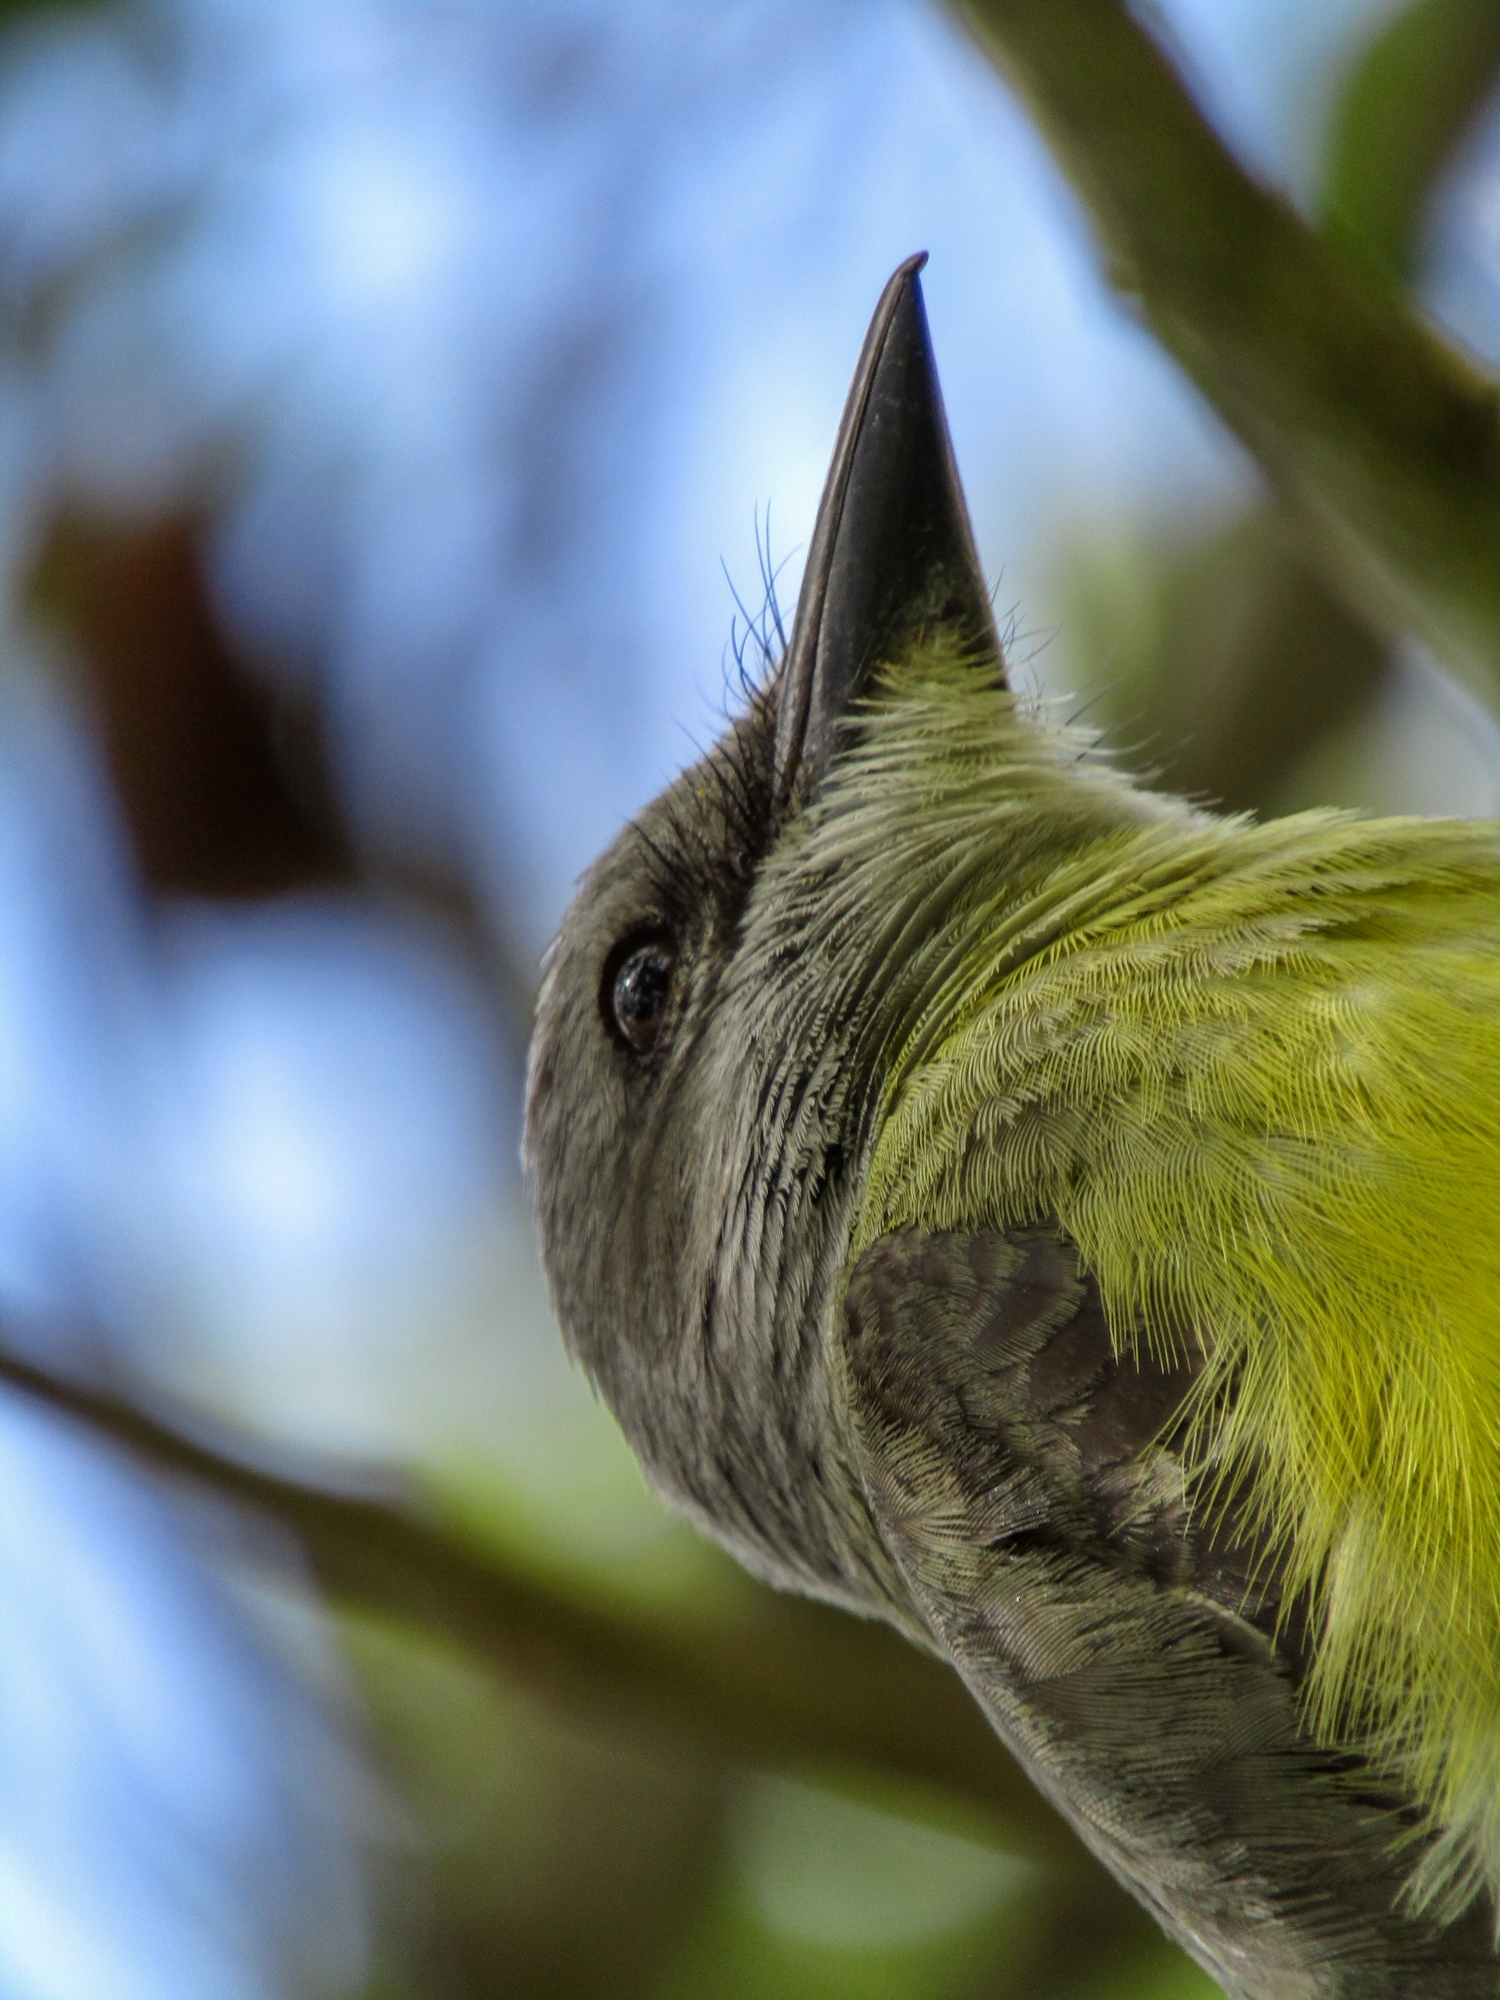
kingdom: Animalia
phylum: Chordata
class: Aves
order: Passeriformes
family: Tyrannidae
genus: Tyrannus
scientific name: Tyrannus melancholicus
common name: Tropical kingbird
